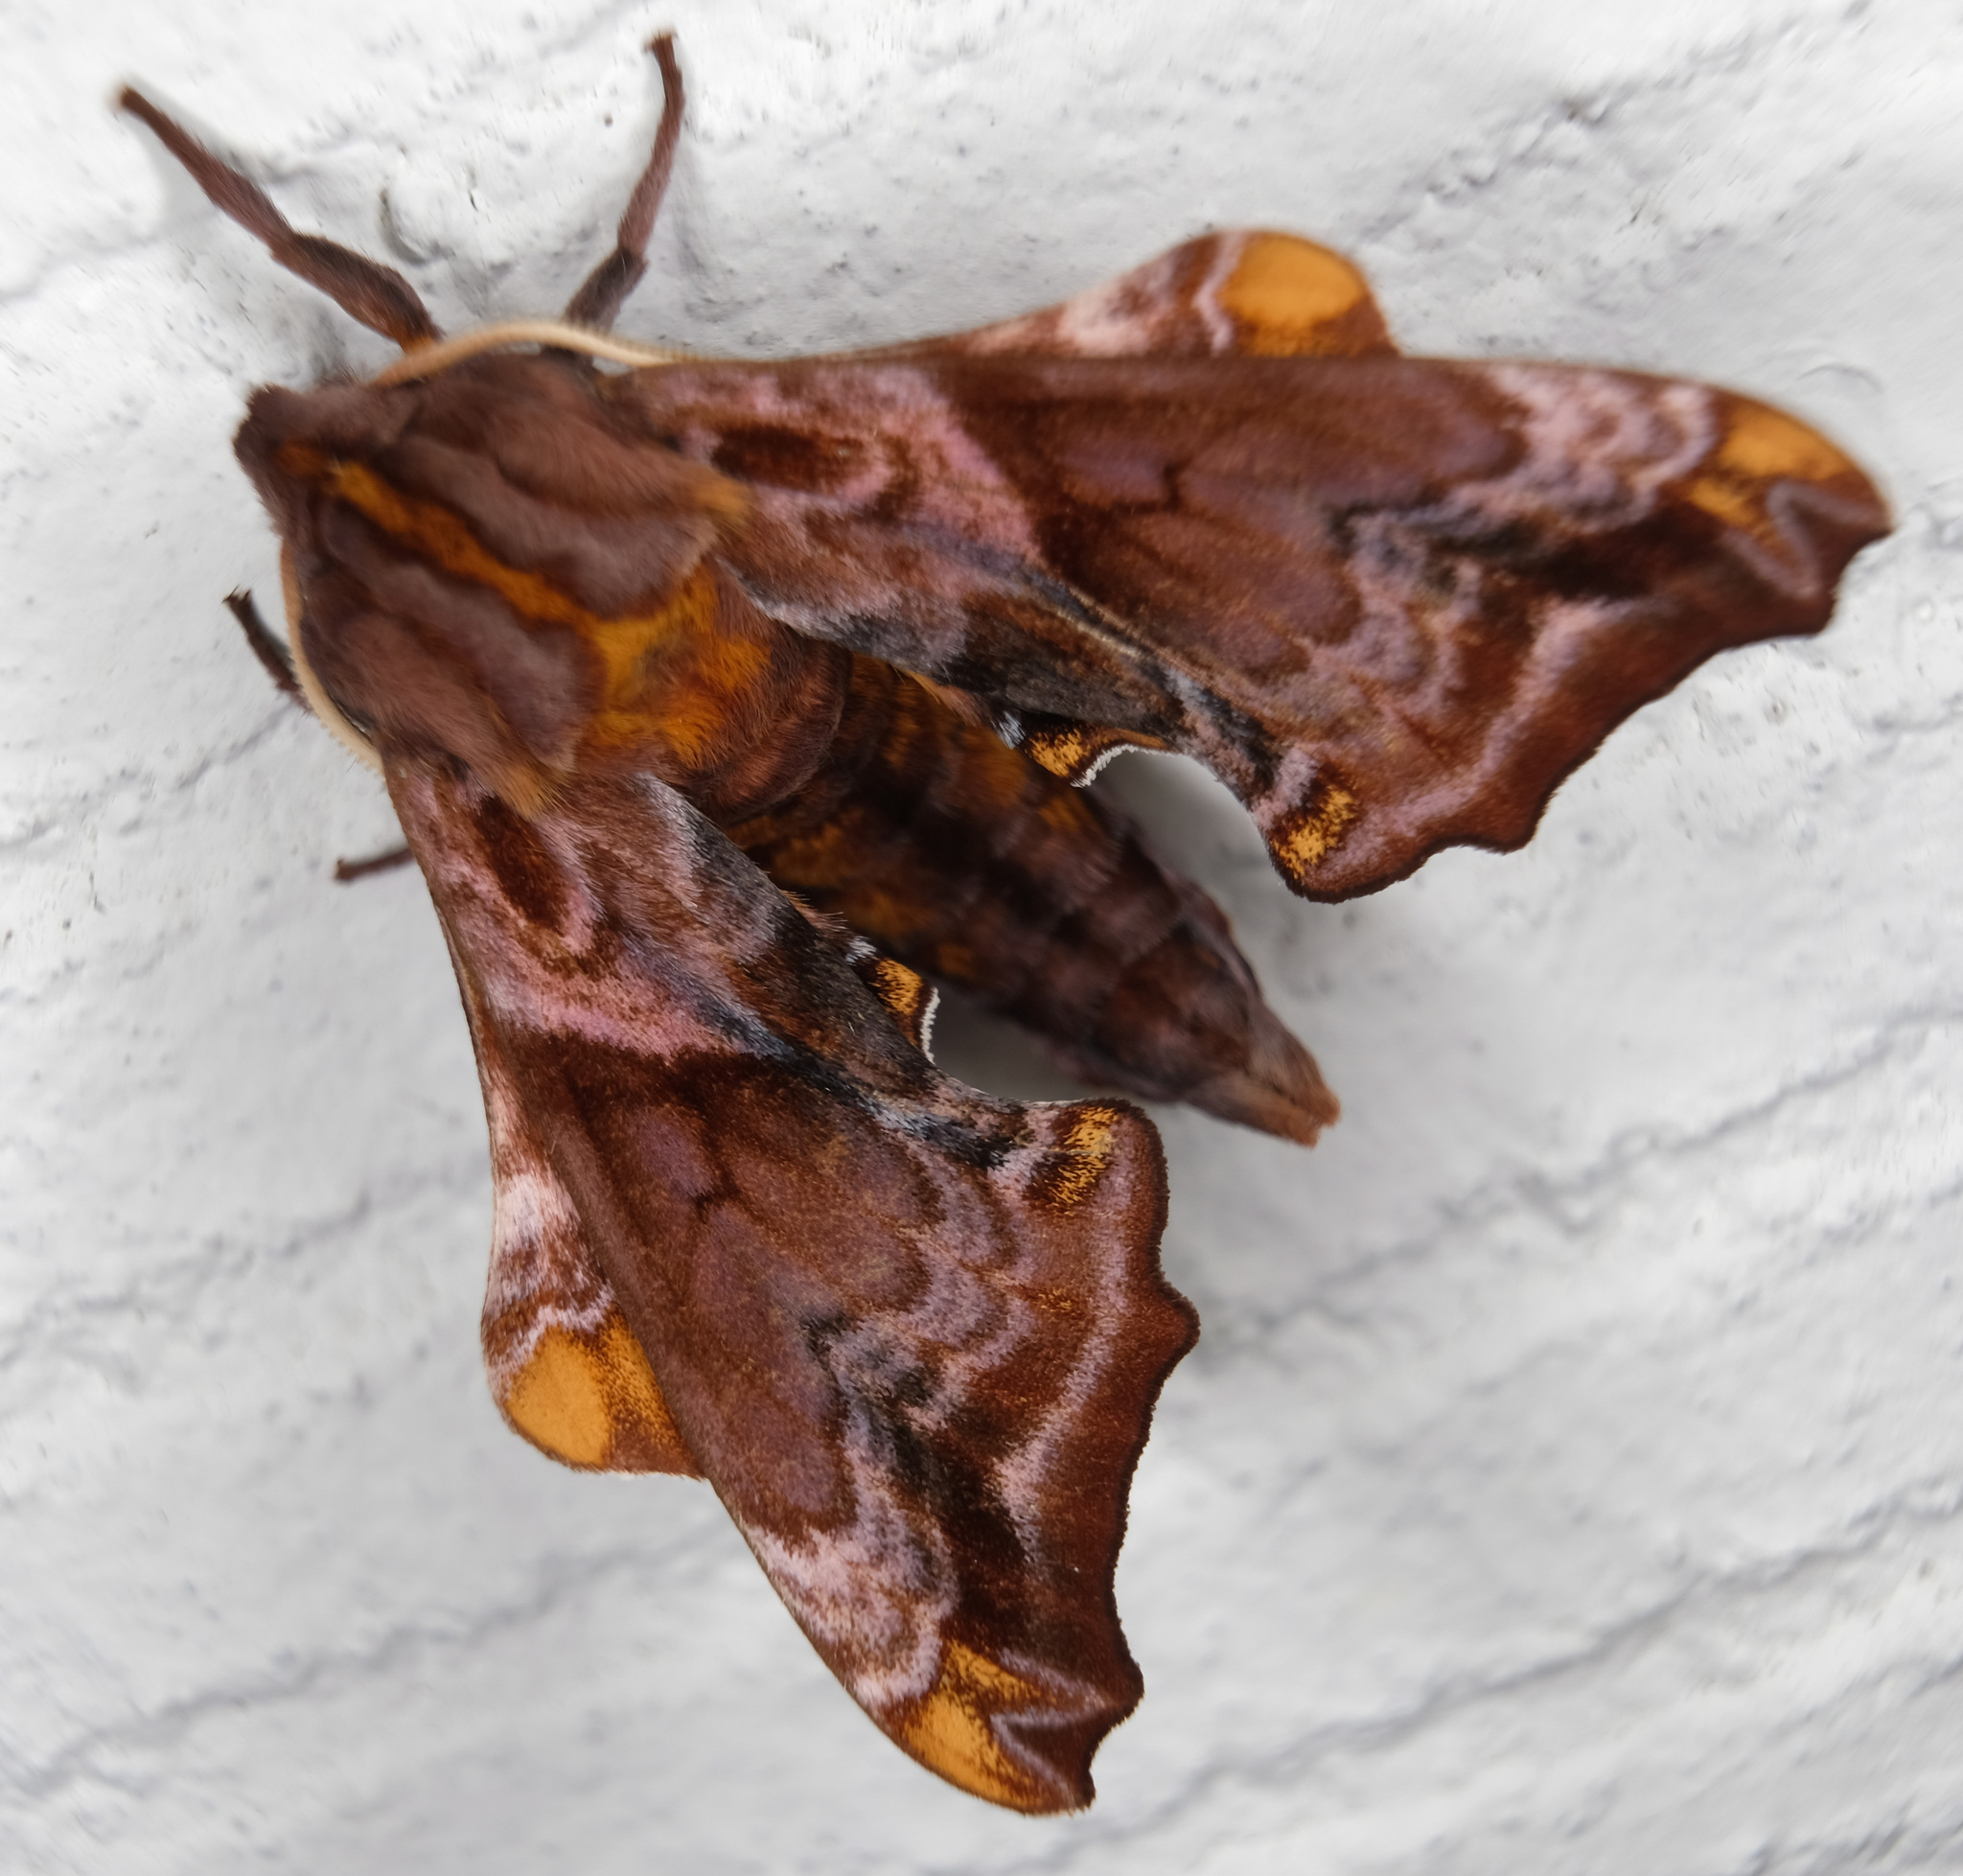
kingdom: Animalia
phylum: Arthropoda
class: Insecta
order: Lepidoptera
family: Sphingidae
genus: Paonias
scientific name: Paonias myops
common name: Small-eyed sphinx
